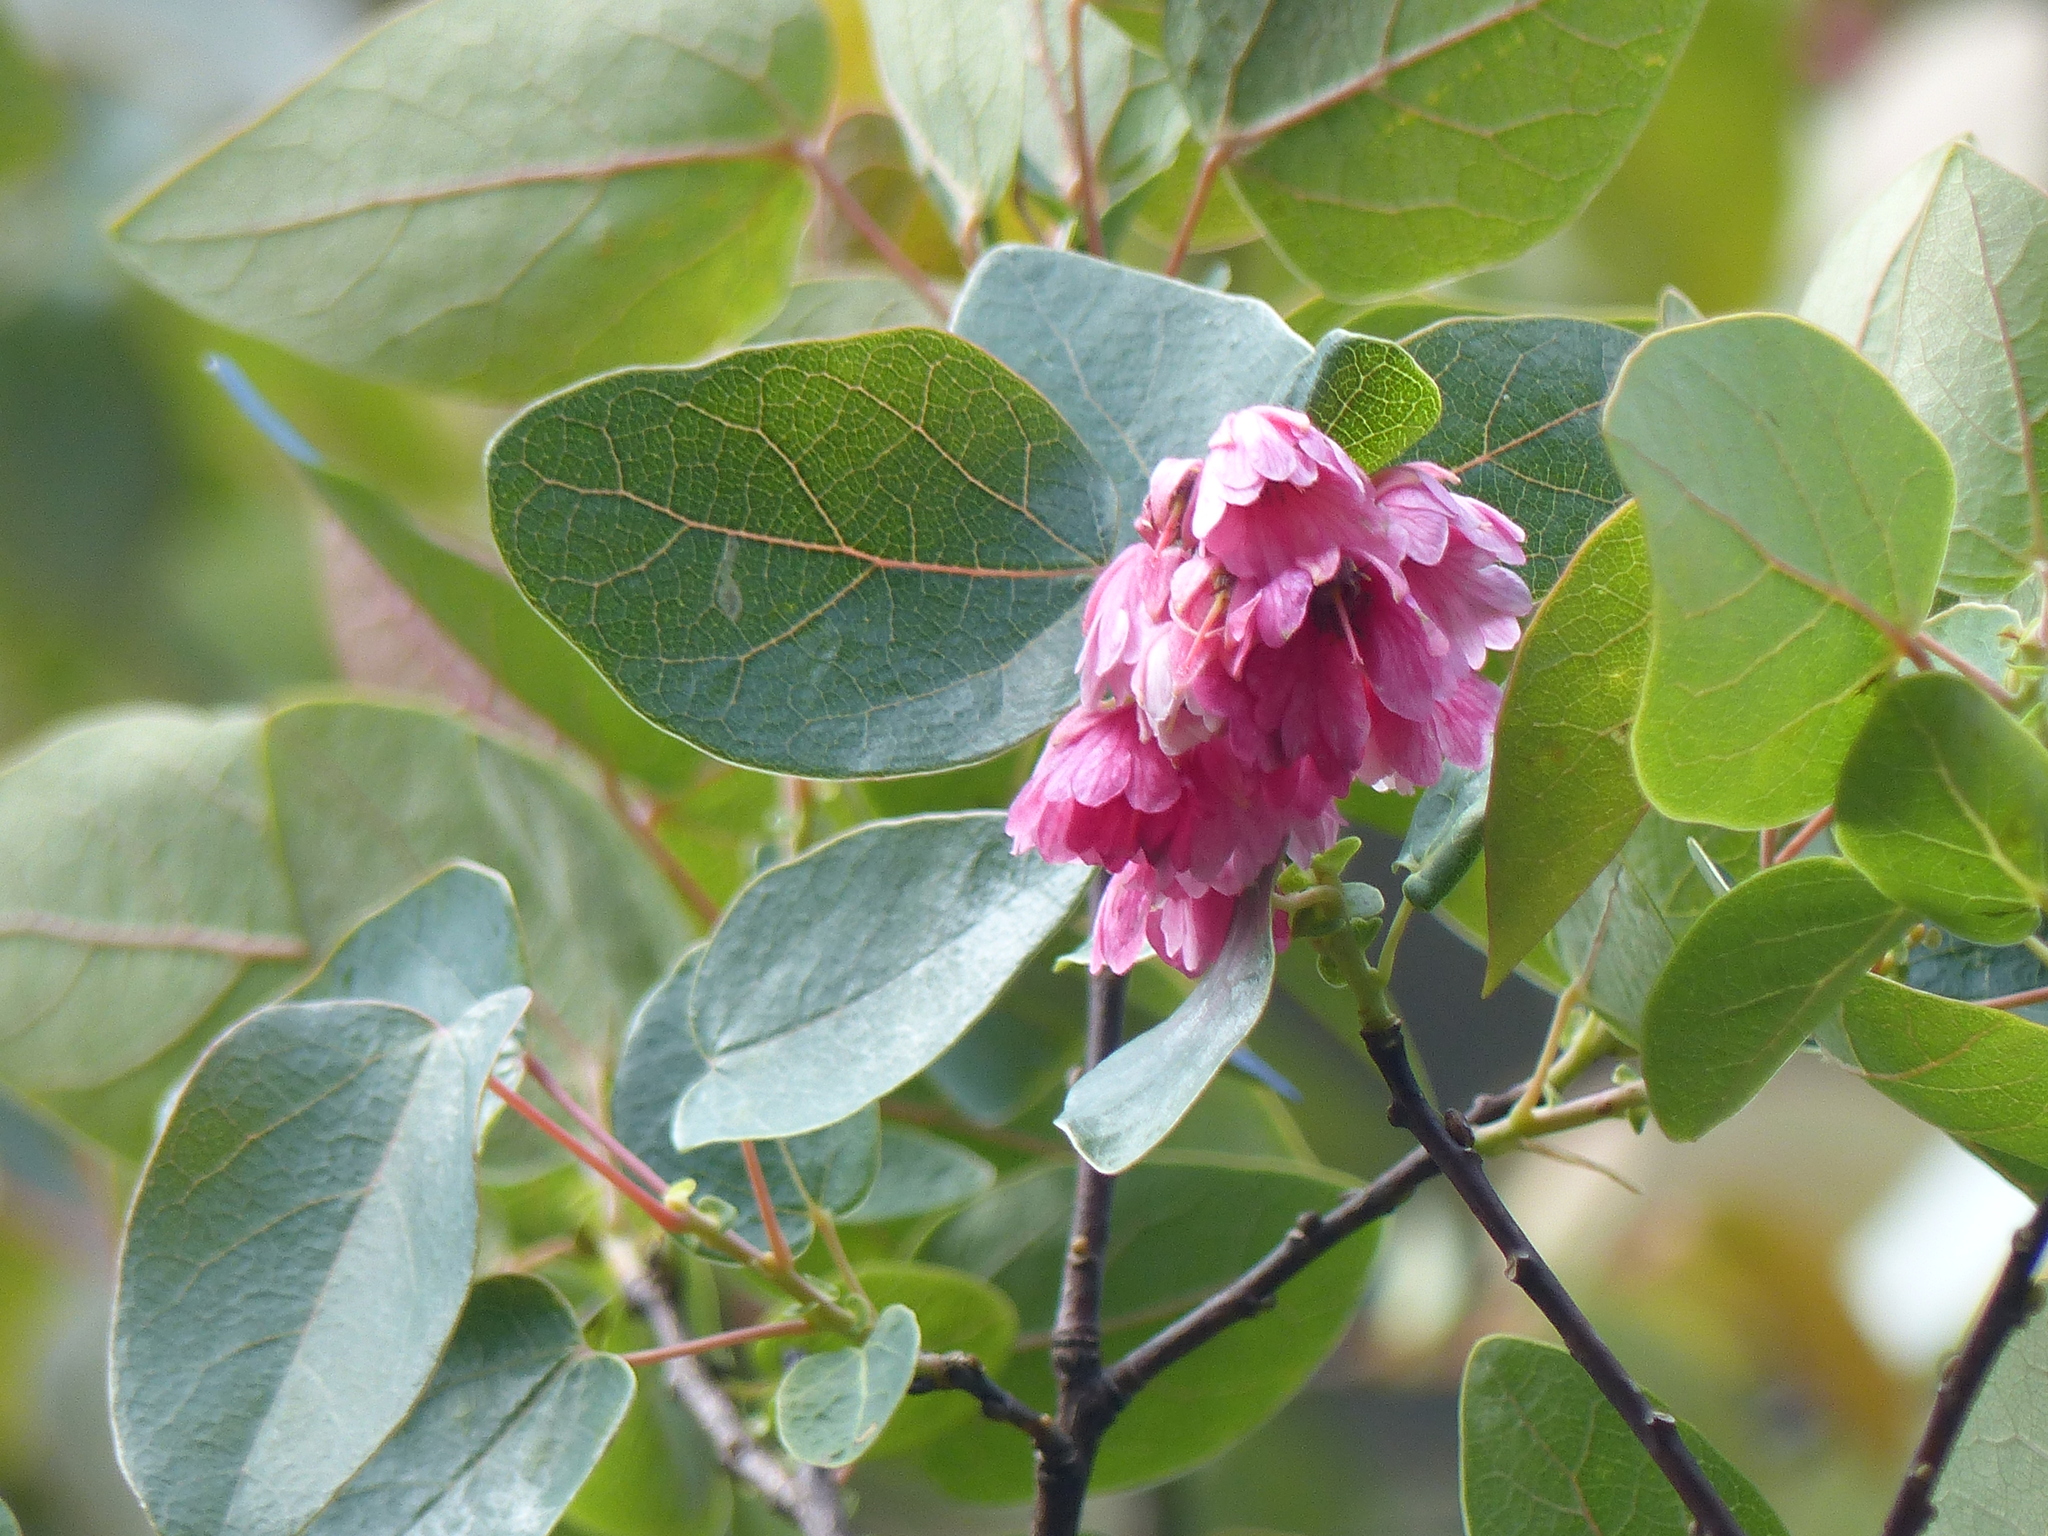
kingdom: Plantae
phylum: Tracheophyta
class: Magnoliopsida
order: Oxalidales
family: Elaeocarpaceae
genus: Vallea
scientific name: Vallea stipularis
